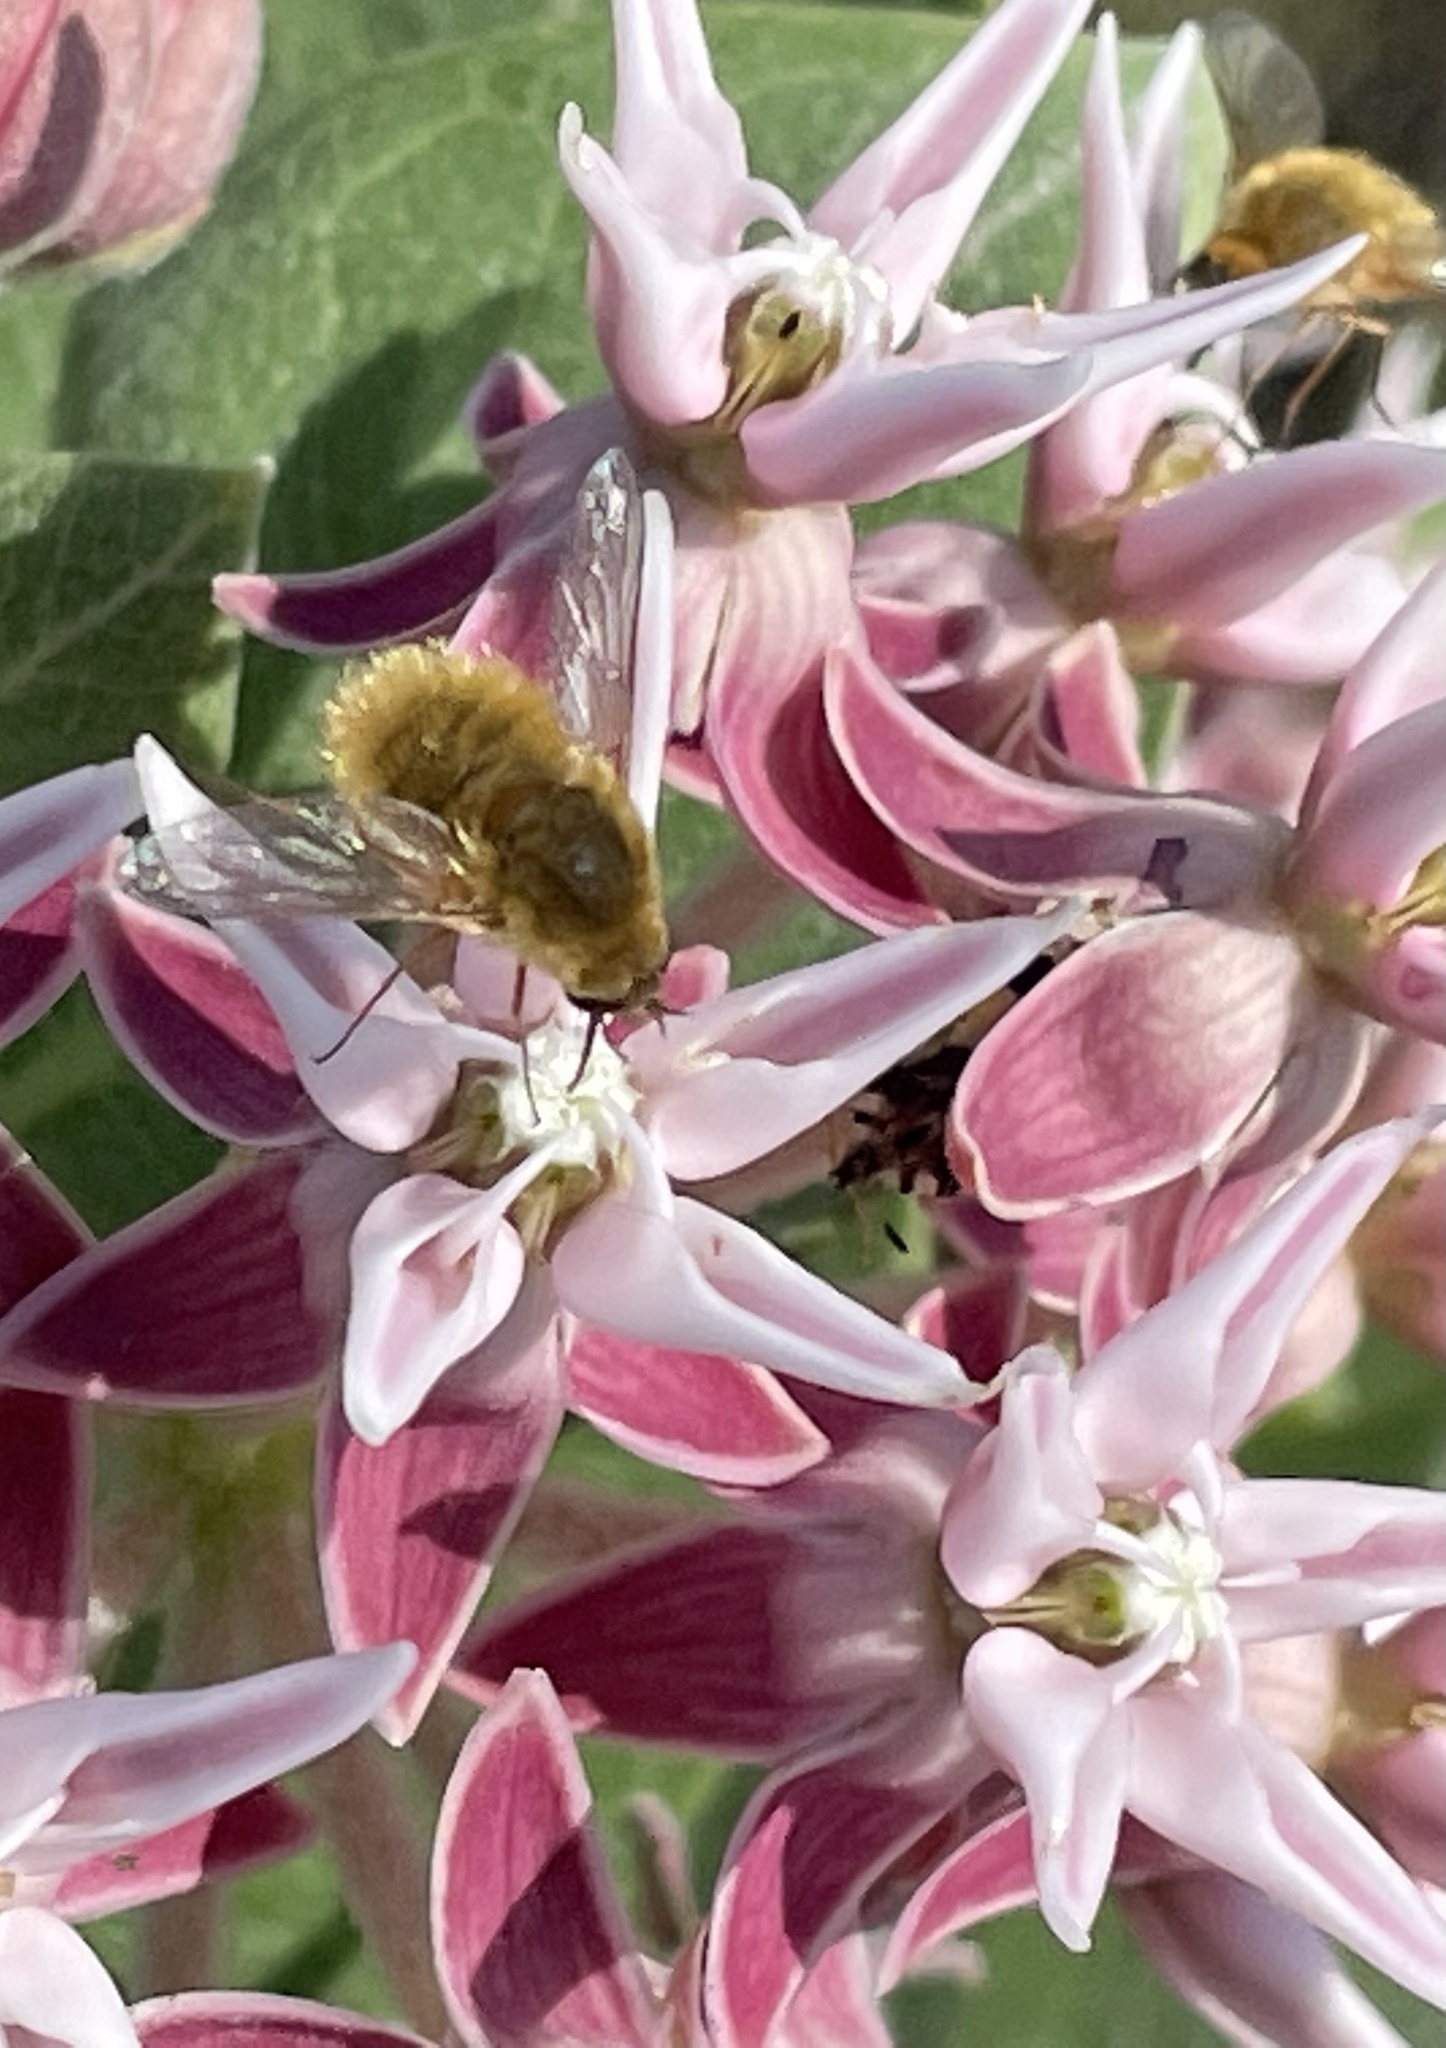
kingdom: Plantae
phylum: Tracheophyta
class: Magnoliopsida
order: Gentianales
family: Apocynaceae
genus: Asclepias
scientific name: Asclepias speciosa
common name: Showy milkweed
